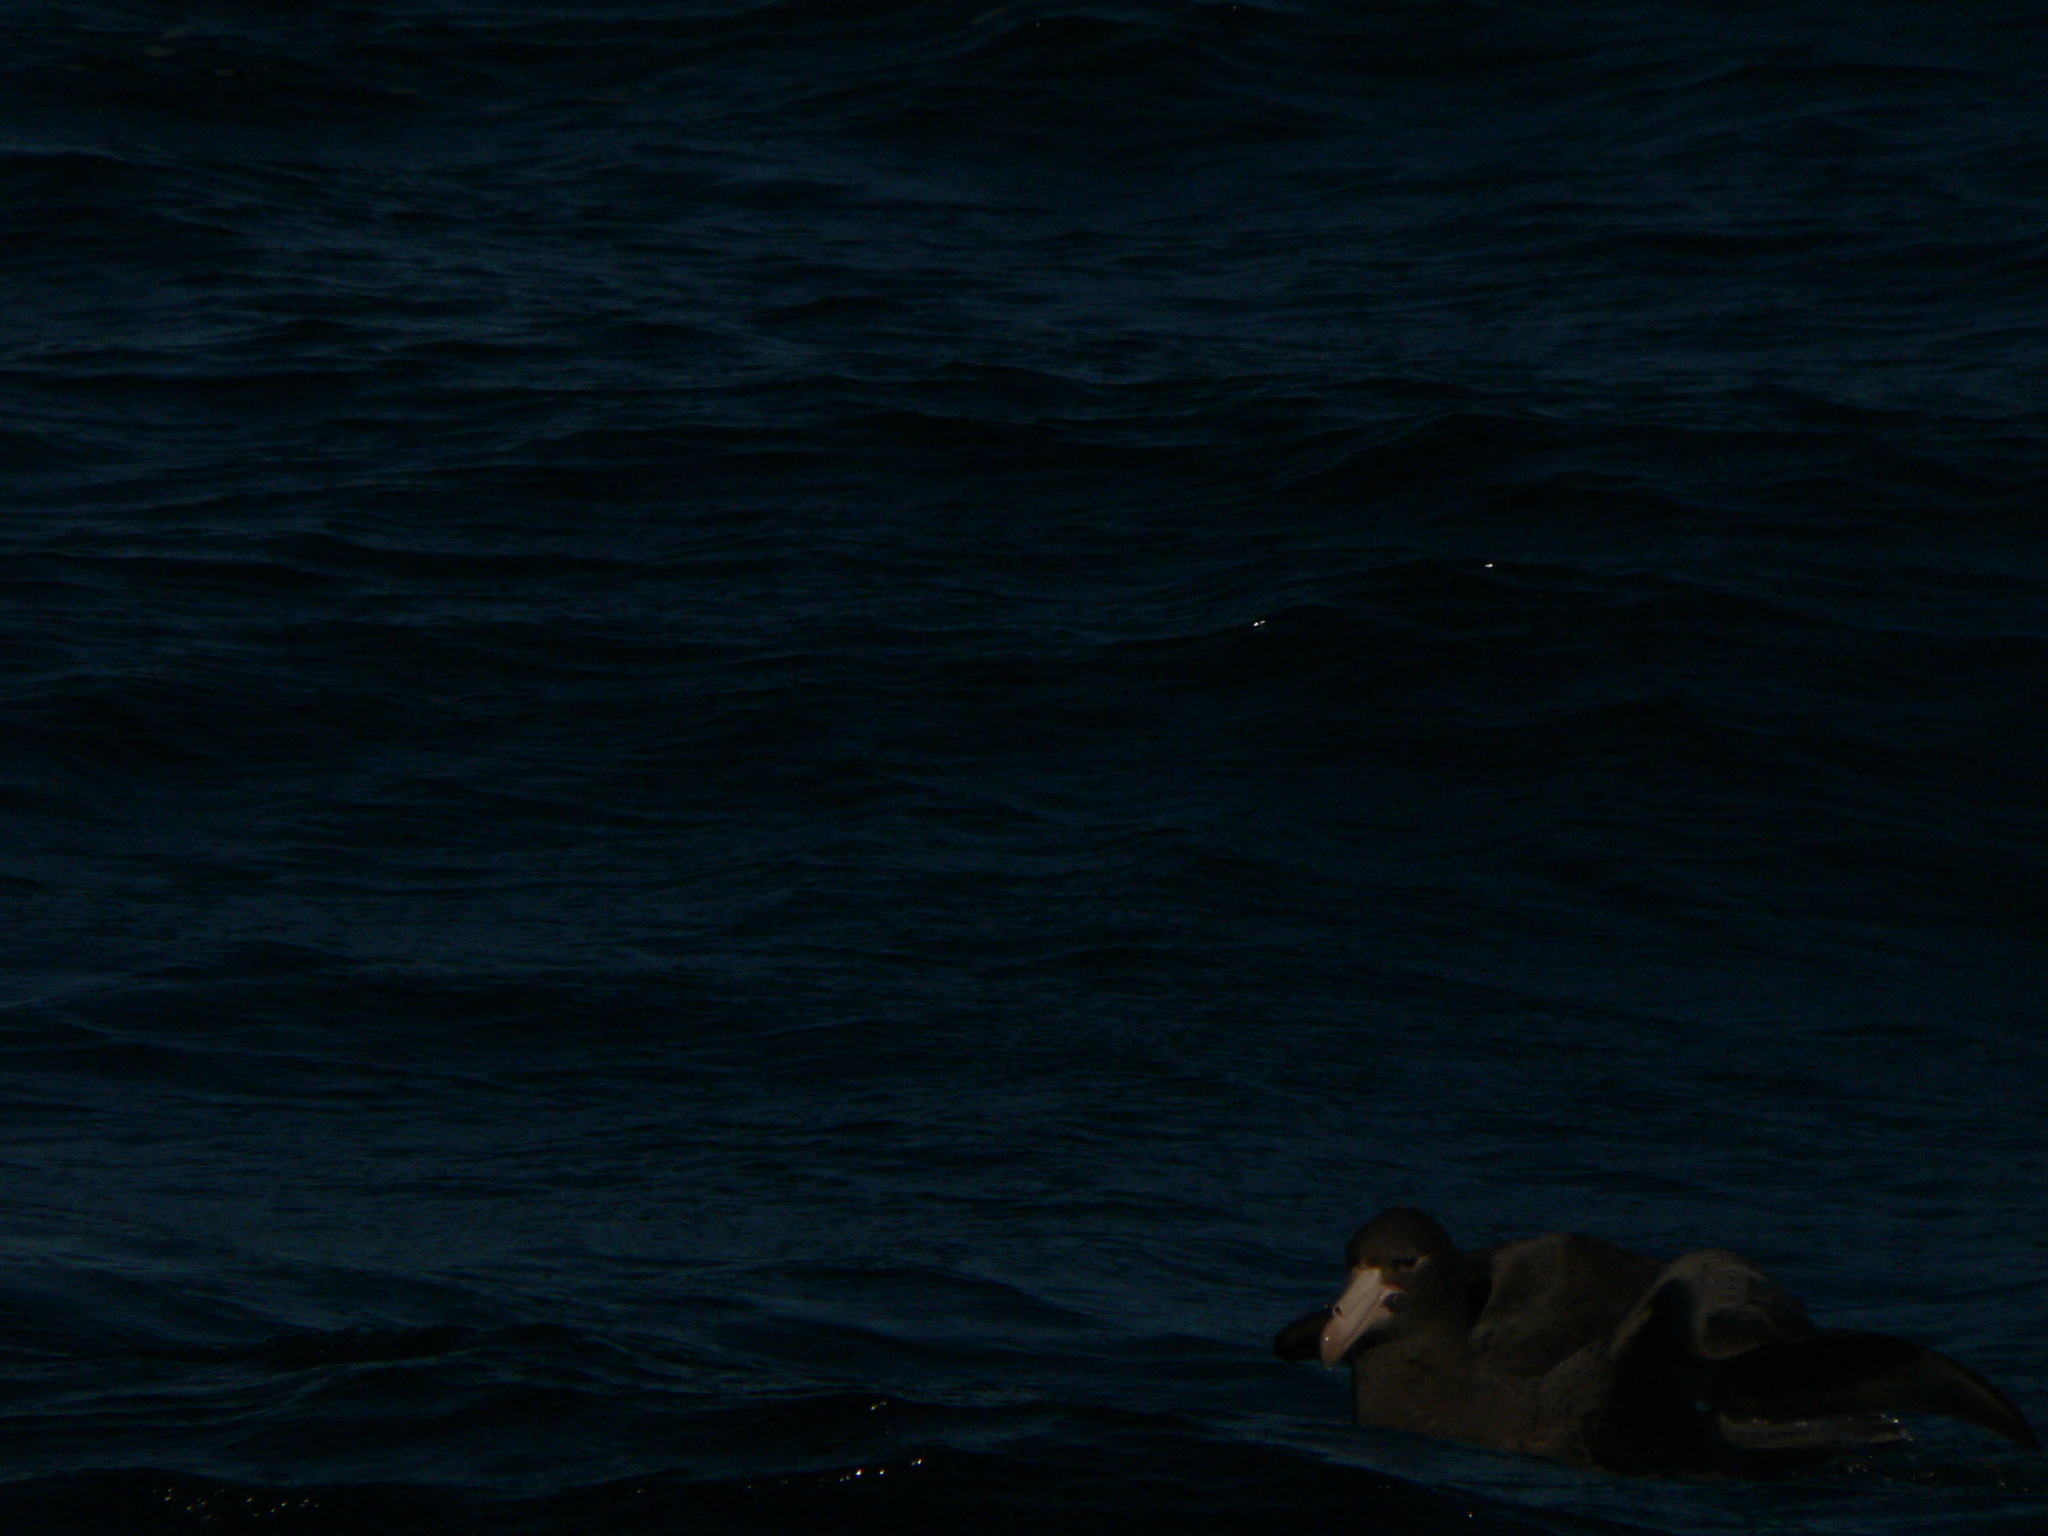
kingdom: Animalia
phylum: Chordata
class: Aves
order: Procellariiformes
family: Procellariidae
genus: Macronectes
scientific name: Macronectes halli
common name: Northern giant petrel
